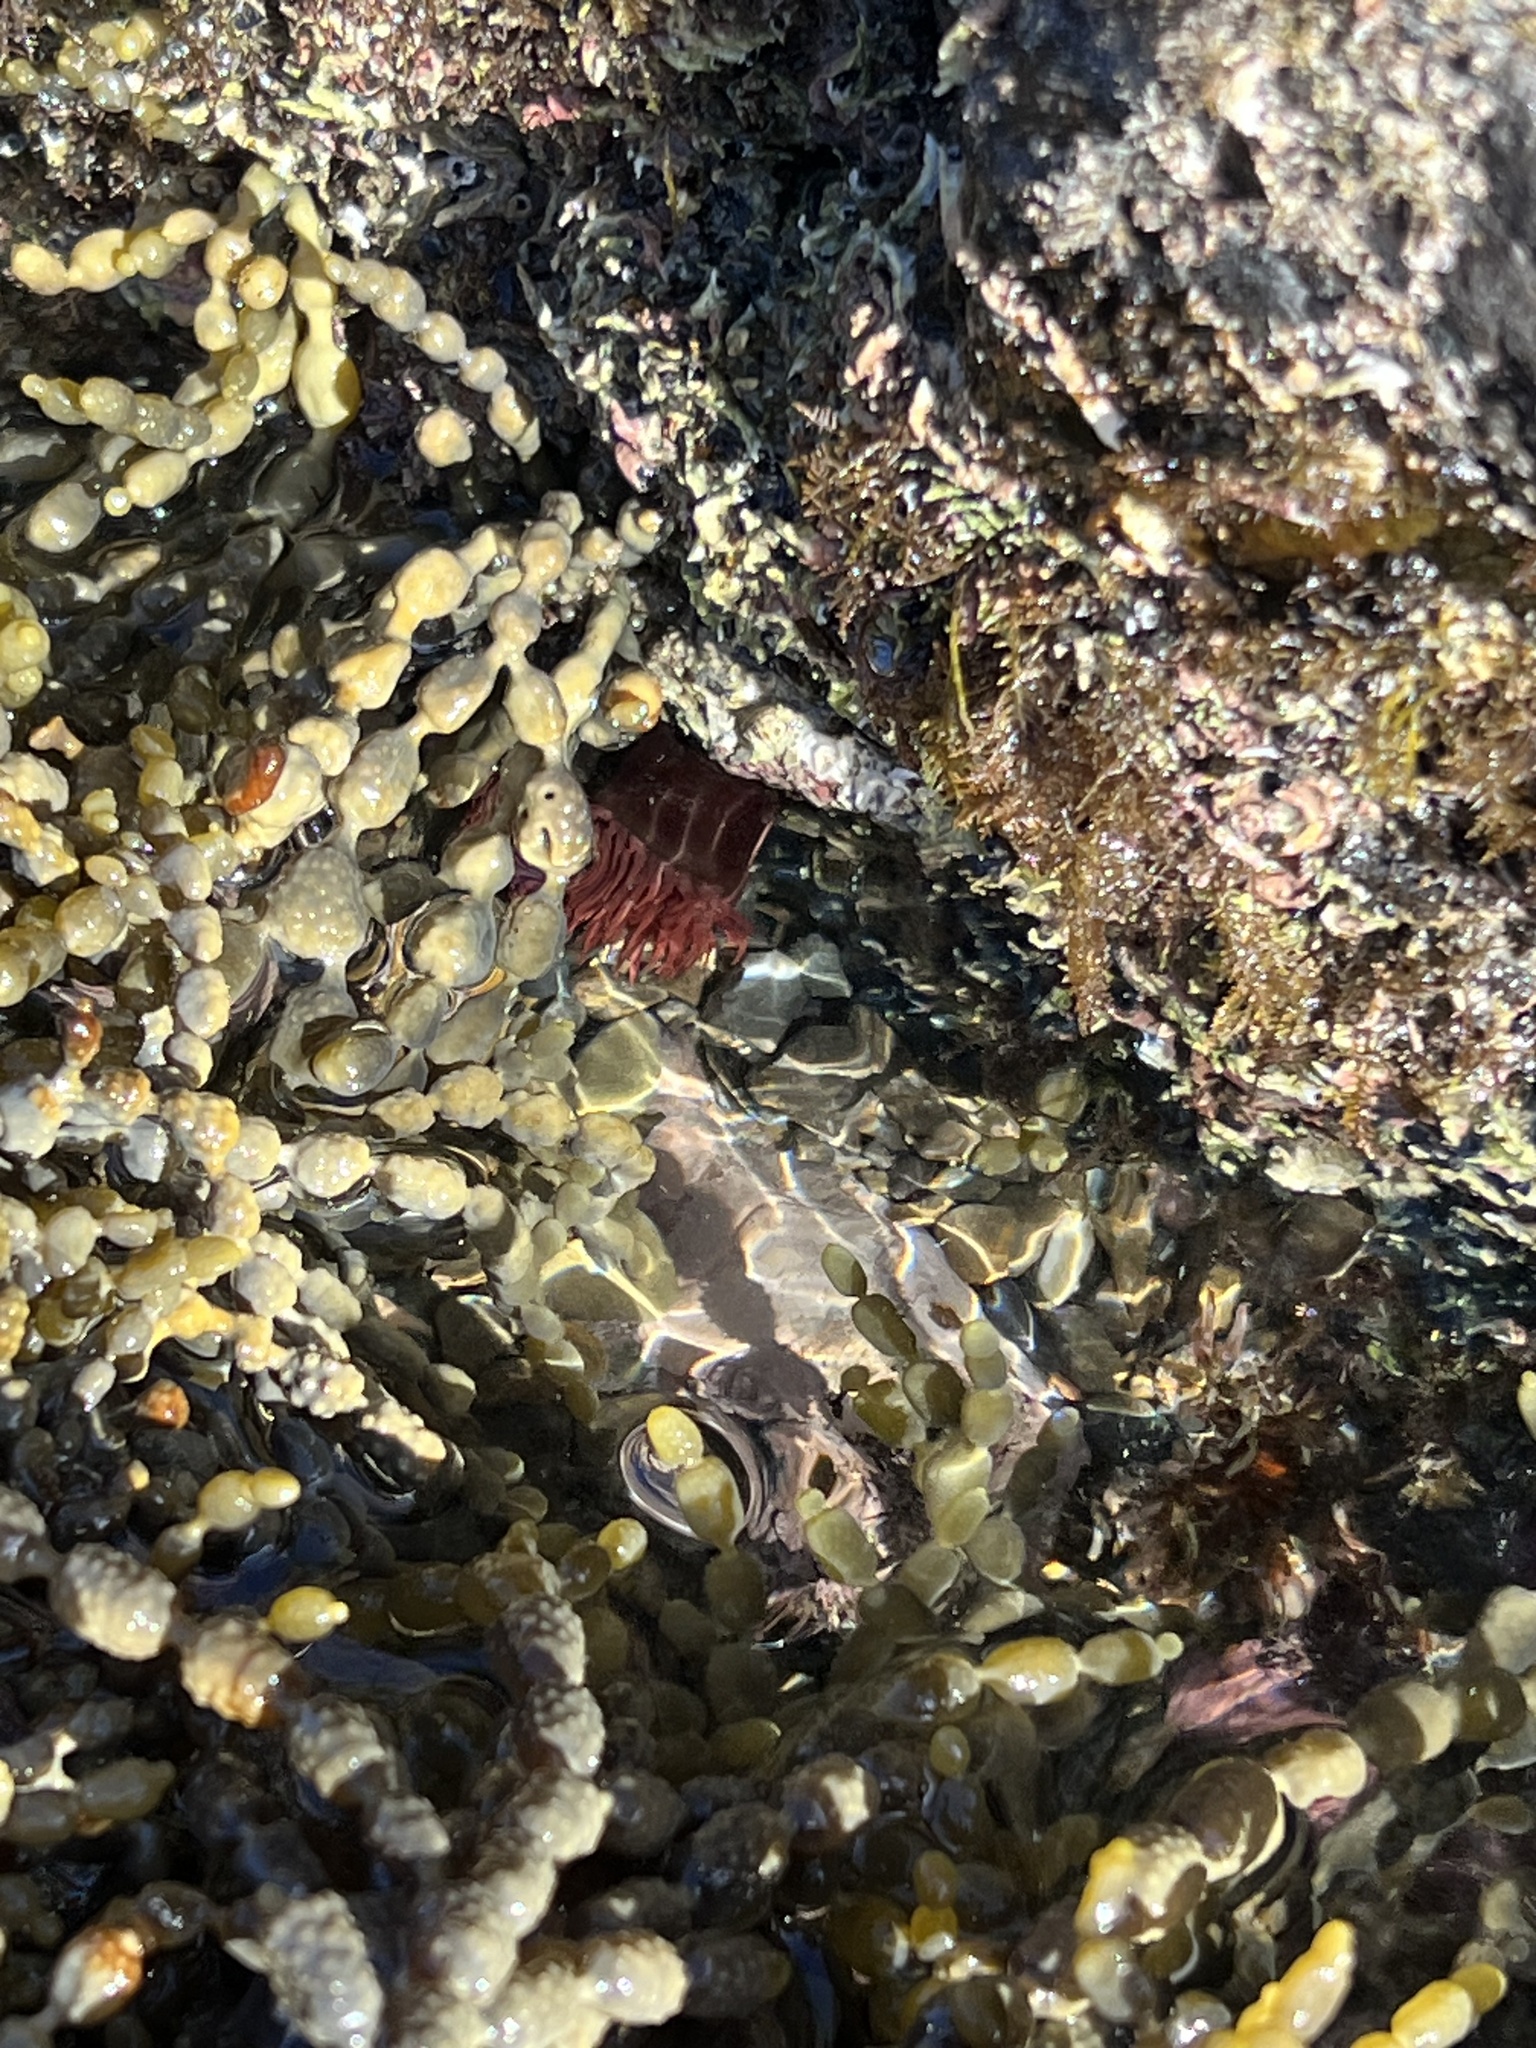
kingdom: Animalia
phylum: Cnidaria
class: Anthozoa
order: Actiniaria
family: Actiniidae
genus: Actinia
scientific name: Actinia tenebrosa
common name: Waratah anemone
